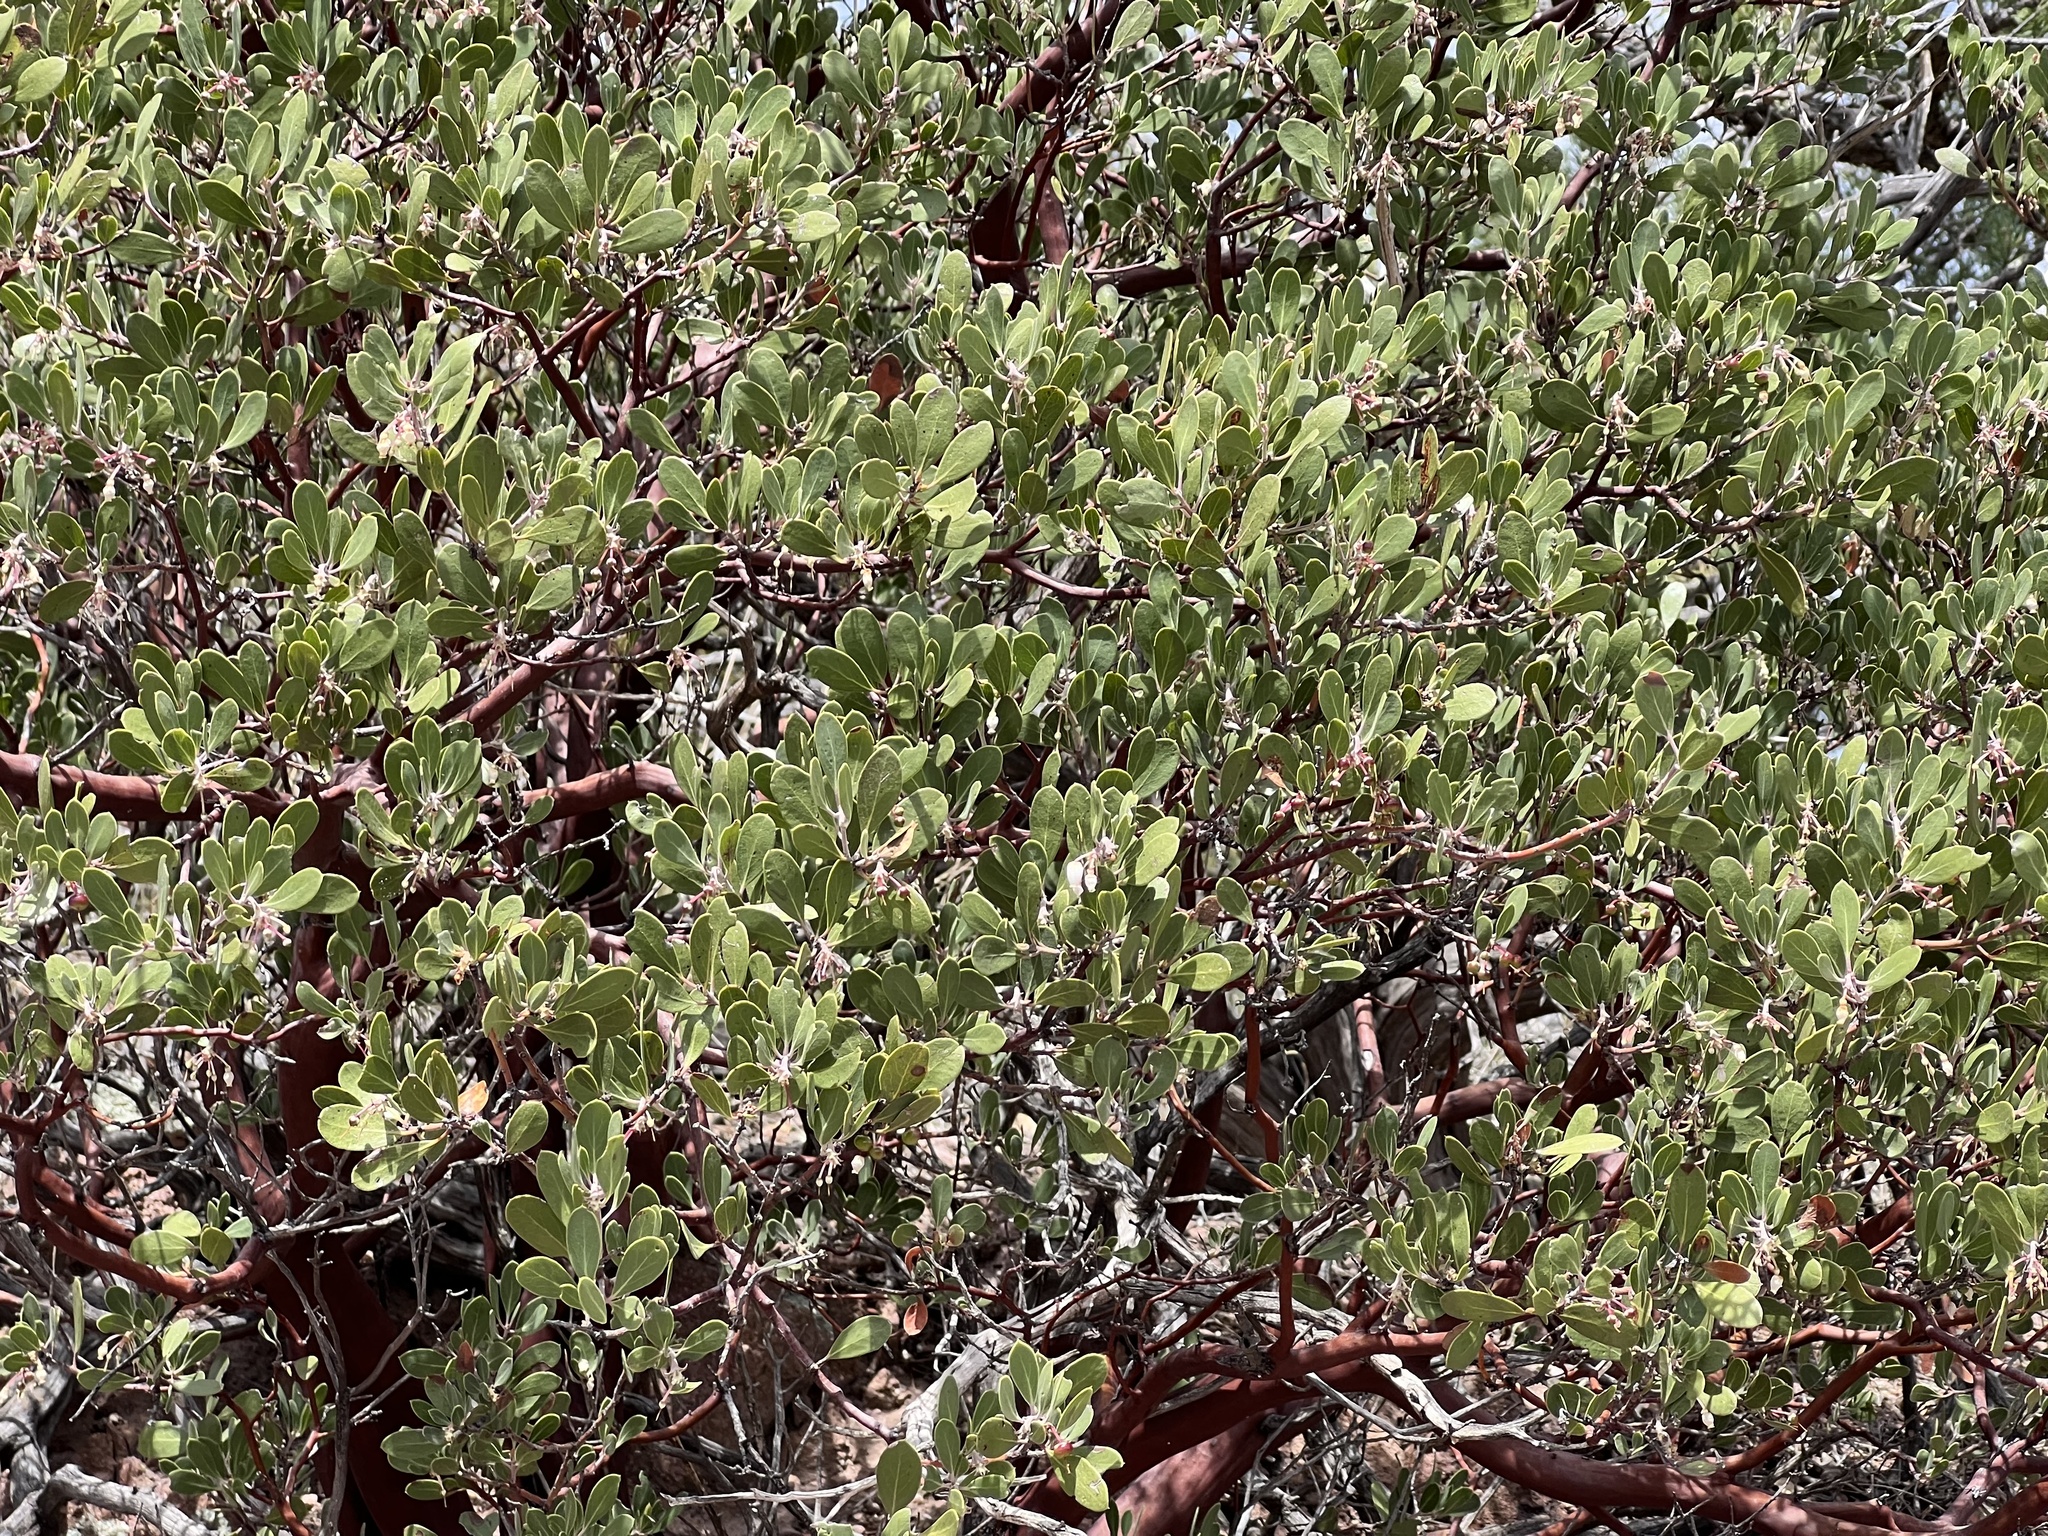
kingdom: Plantae
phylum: Tracheophyta
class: Magnoliopsida
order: Ericales
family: Ericaceae
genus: Arctostaphylos
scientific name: Arctostaphylos pungens
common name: Mexican manzanita
